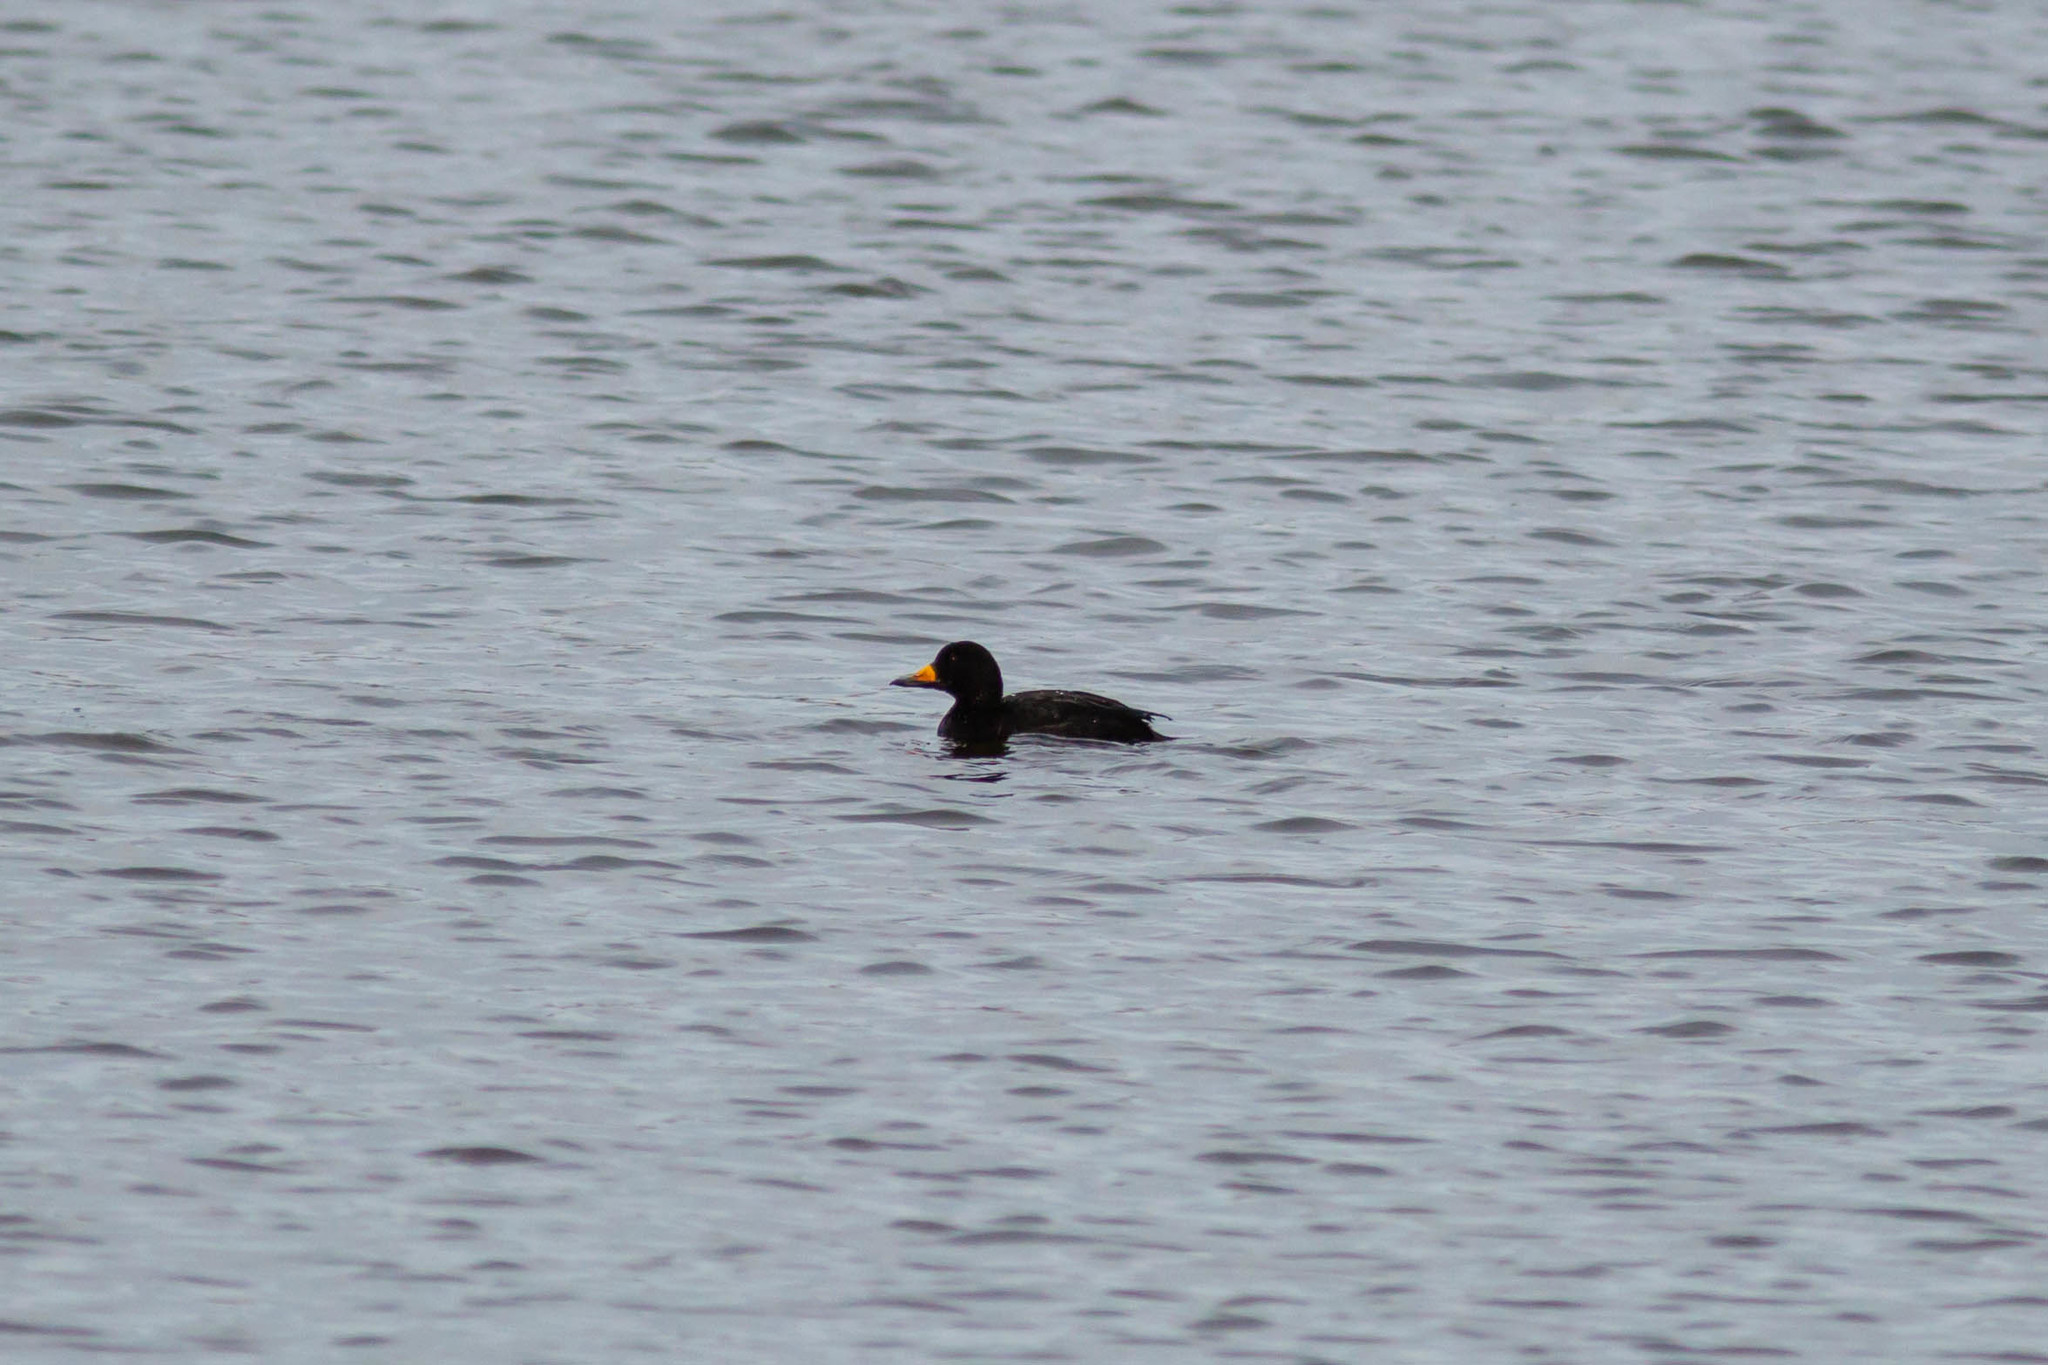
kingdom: Animalia
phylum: Chordata
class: Aves
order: Anseriformes
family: Anatidae
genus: Melanitta
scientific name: Melanitta americana
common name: Black scoter
